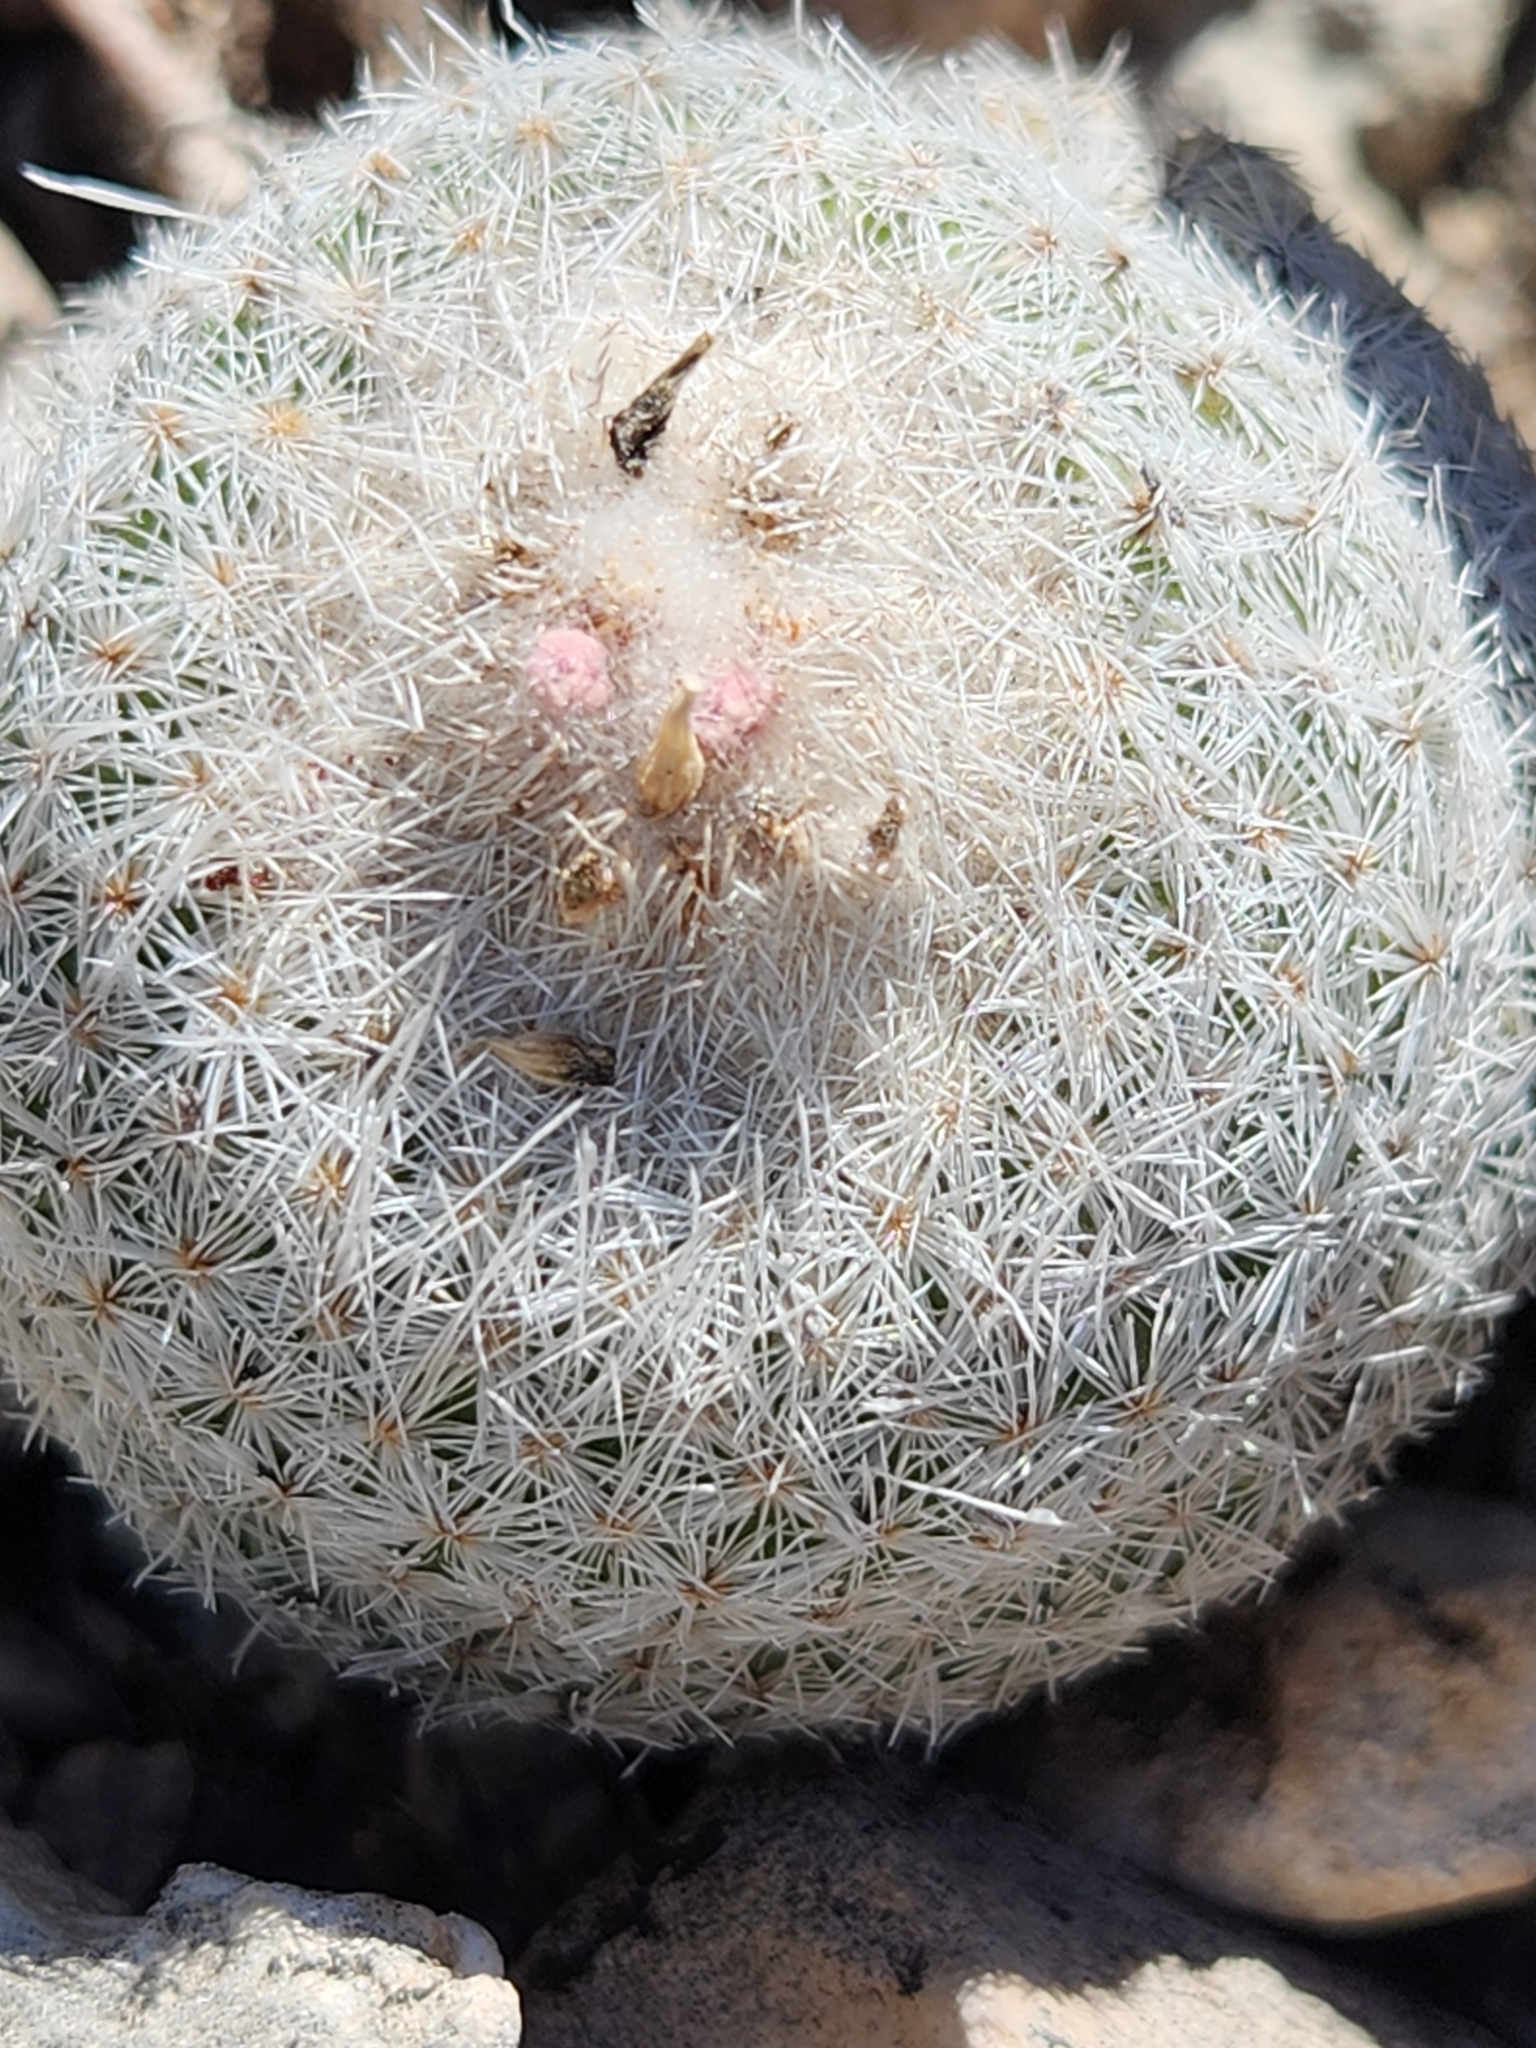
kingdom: Plantae
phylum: Tracheophyta
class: Magnoliopsida
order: Caryophyllales
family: Cactaceae
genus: Epithelantha
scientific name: Epithelantha micromeris
